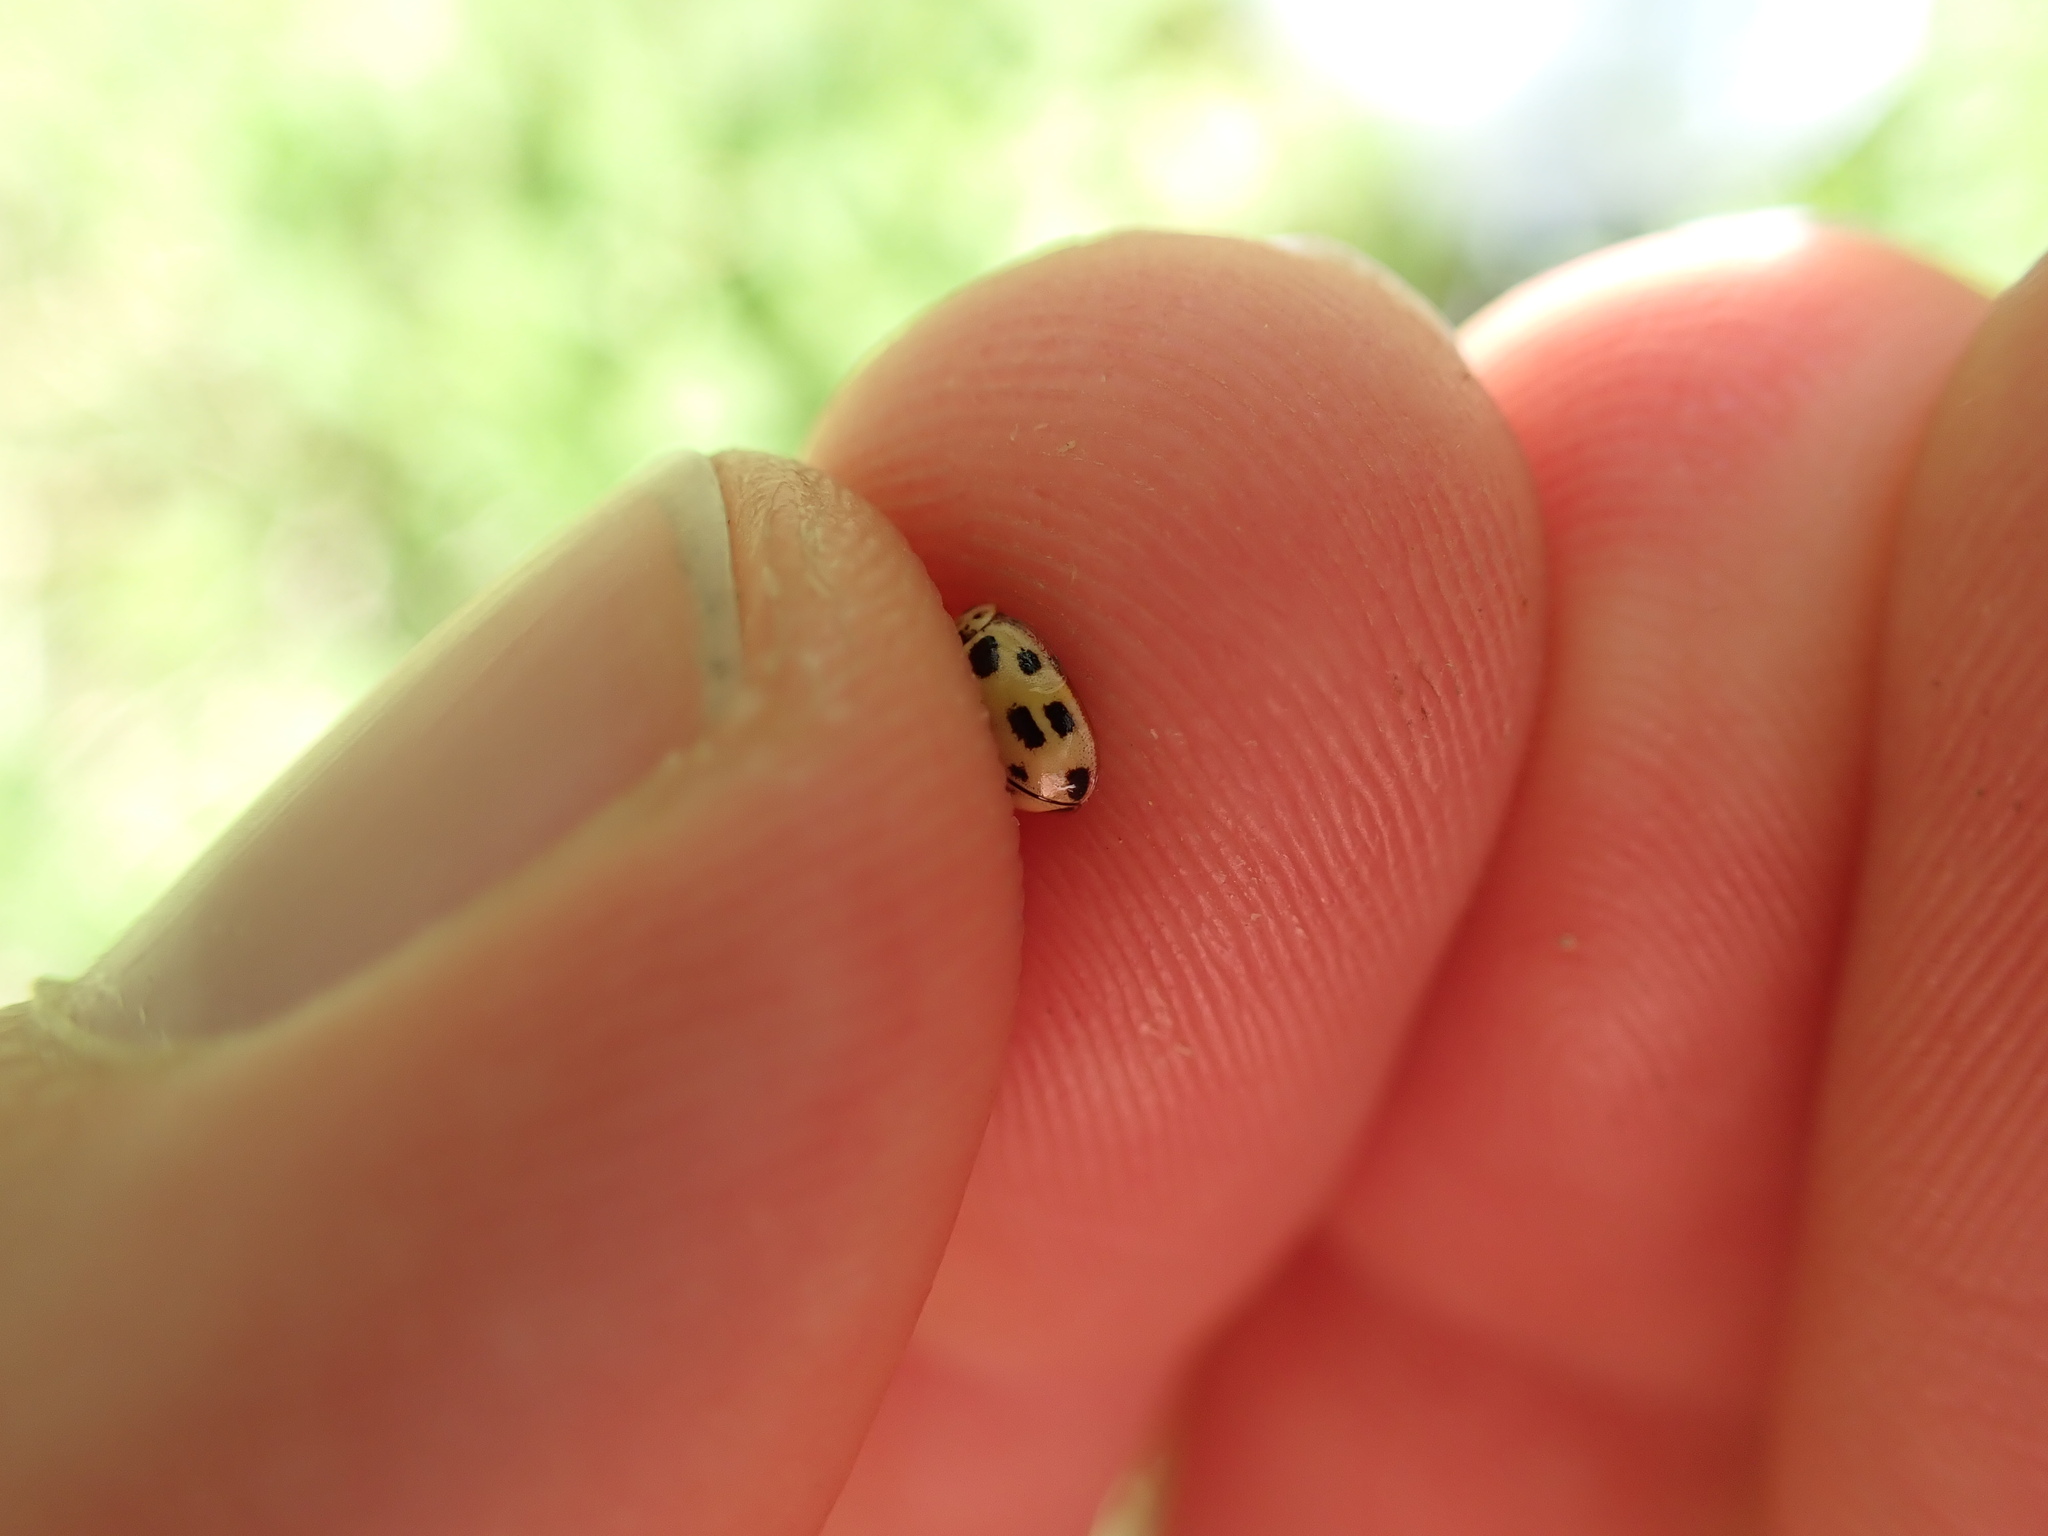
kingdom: Animalia
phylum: Arthropoda
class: Insecta
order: Coleoptera
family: Coccinellidae
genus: Propylaea
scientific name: Propylaea quatuordecimpunctata
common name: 14-spotted ladybird beetle
